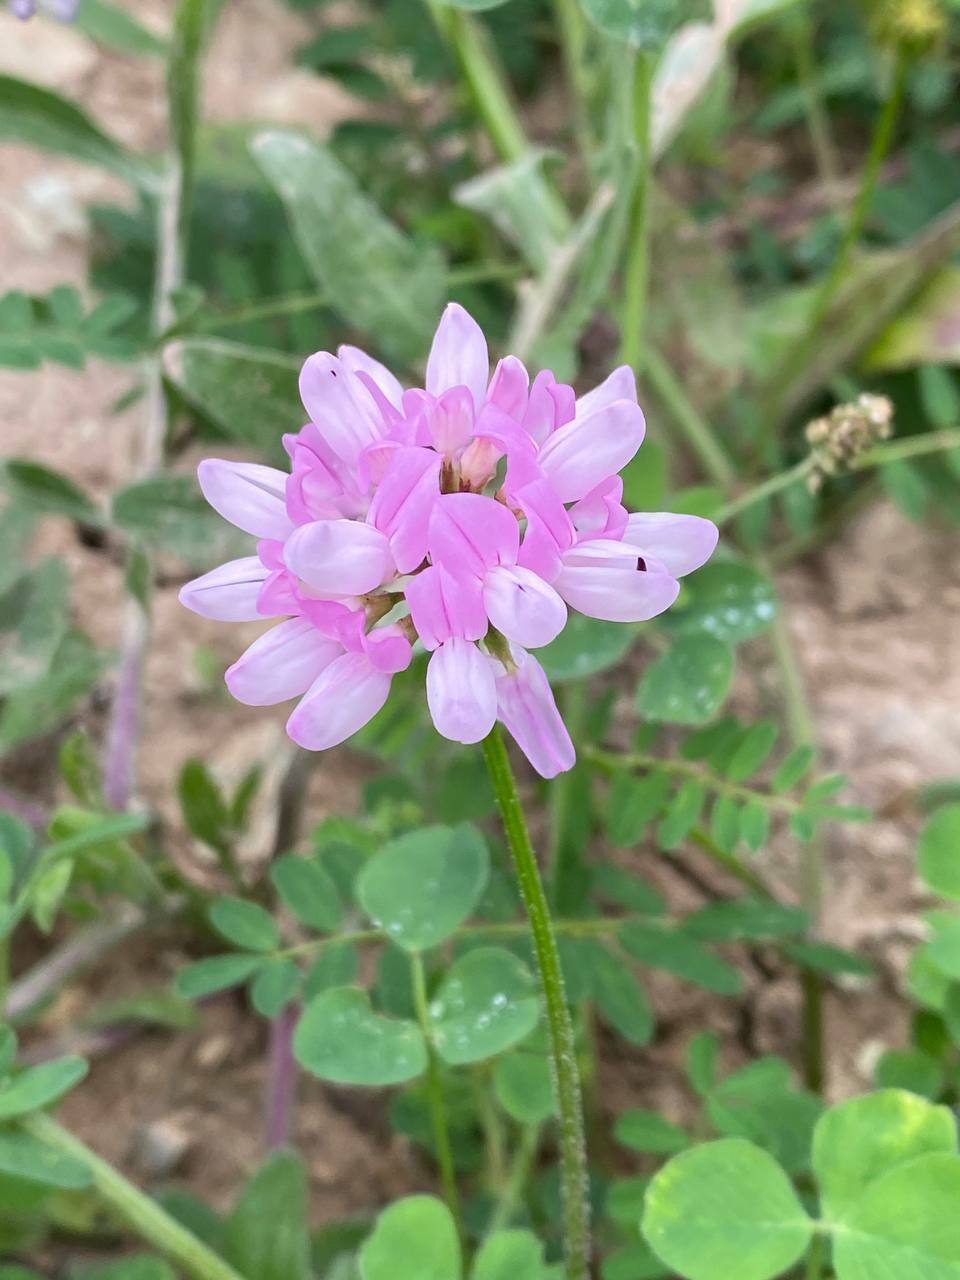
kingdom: Plantae
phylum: Tracheophyta
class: Magnoliopsida
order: Fabales
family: Fabaceae
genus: Coronilla
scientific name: Coronilla varia
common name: Crownvetch
